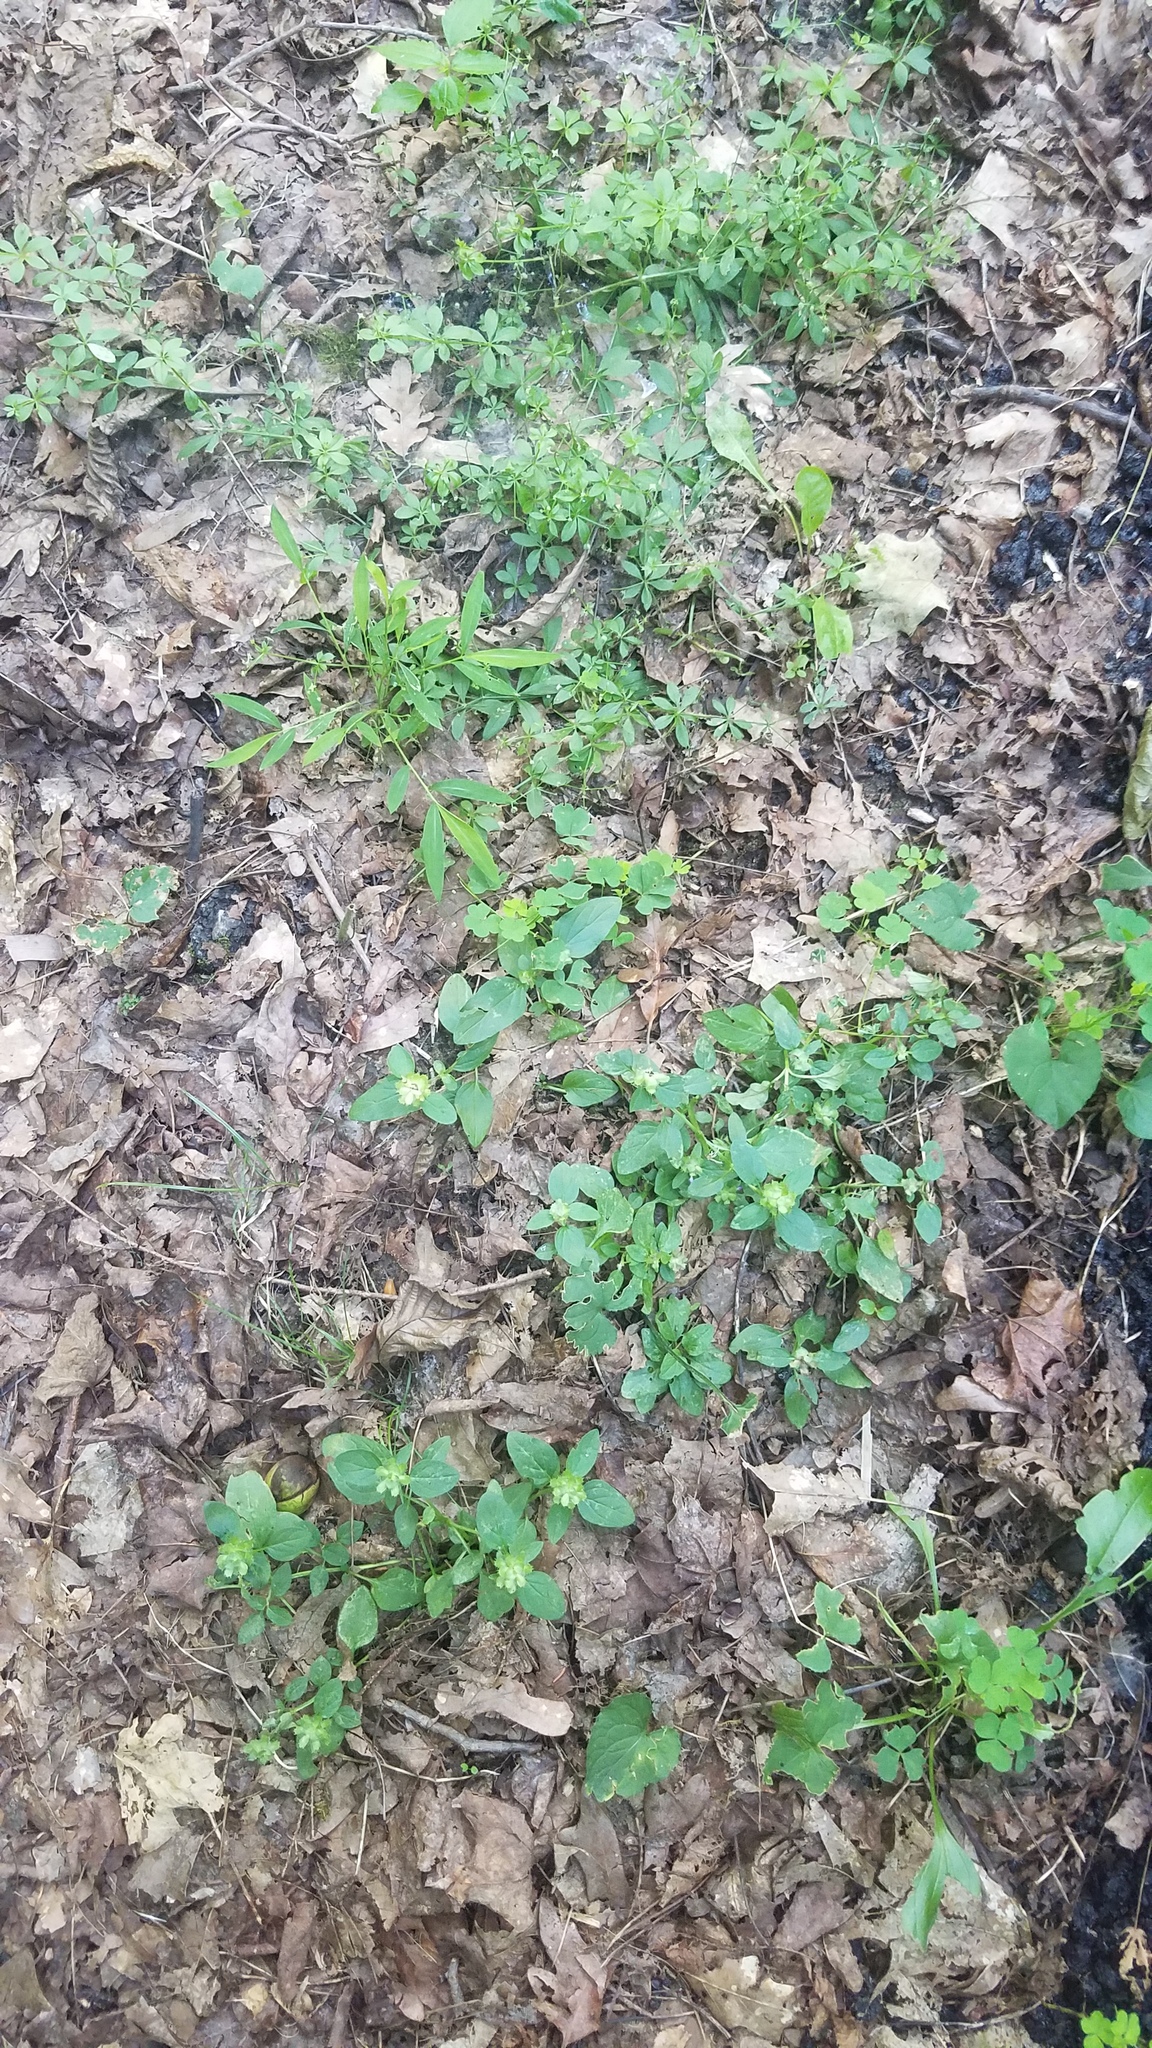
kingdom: Plantae
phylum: Tracheophyta
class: Magnoliopsida
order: Lamiales
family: Lamiaceae
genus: Prunella
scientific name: Prunella vulgaris
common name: Heal-all
